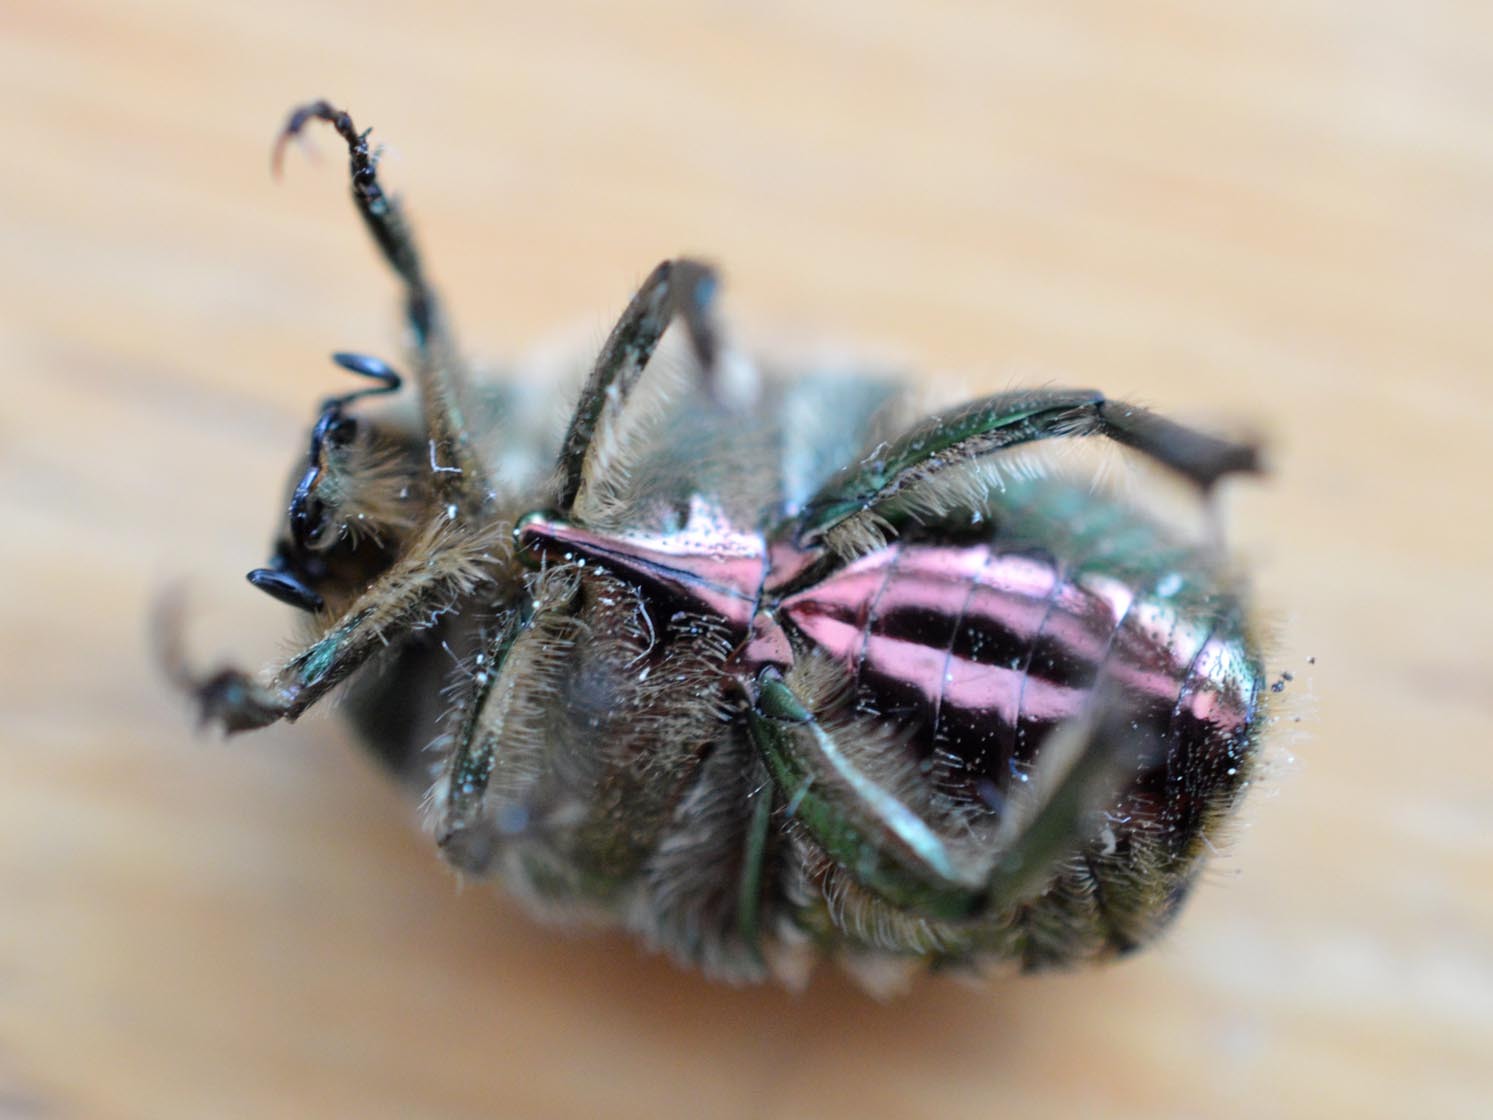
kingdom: Animalia
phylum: Arthropoda
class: Insecta
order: Coleoptera
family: Scarabaeidae
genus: Cetonia
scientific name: Cetonia aurata
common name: Rose chafer
